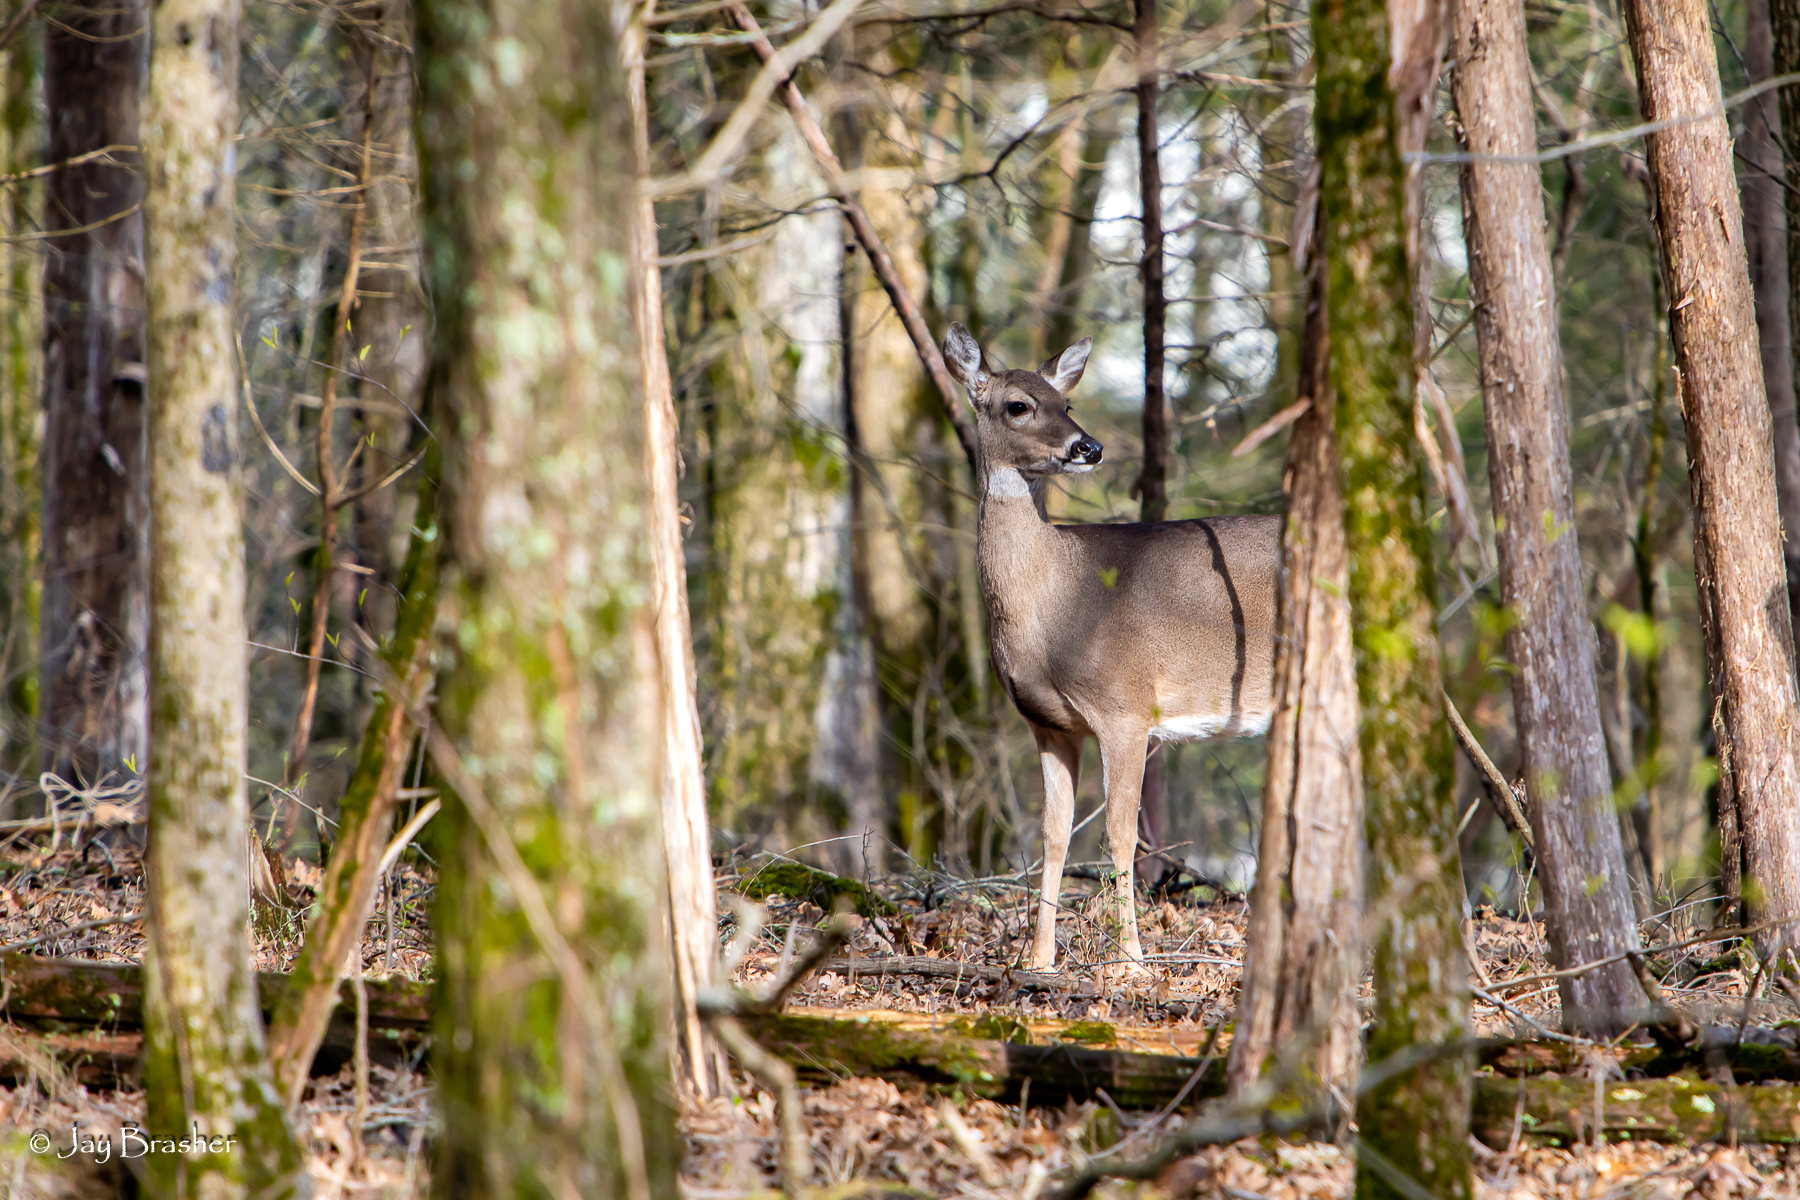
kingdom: Animalia
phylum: Chordata
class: Mammalia
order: Artiodactyla
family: Cervidae
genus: Odocoileus
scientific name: Odocoileus virginianus
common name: White-tailed deer
